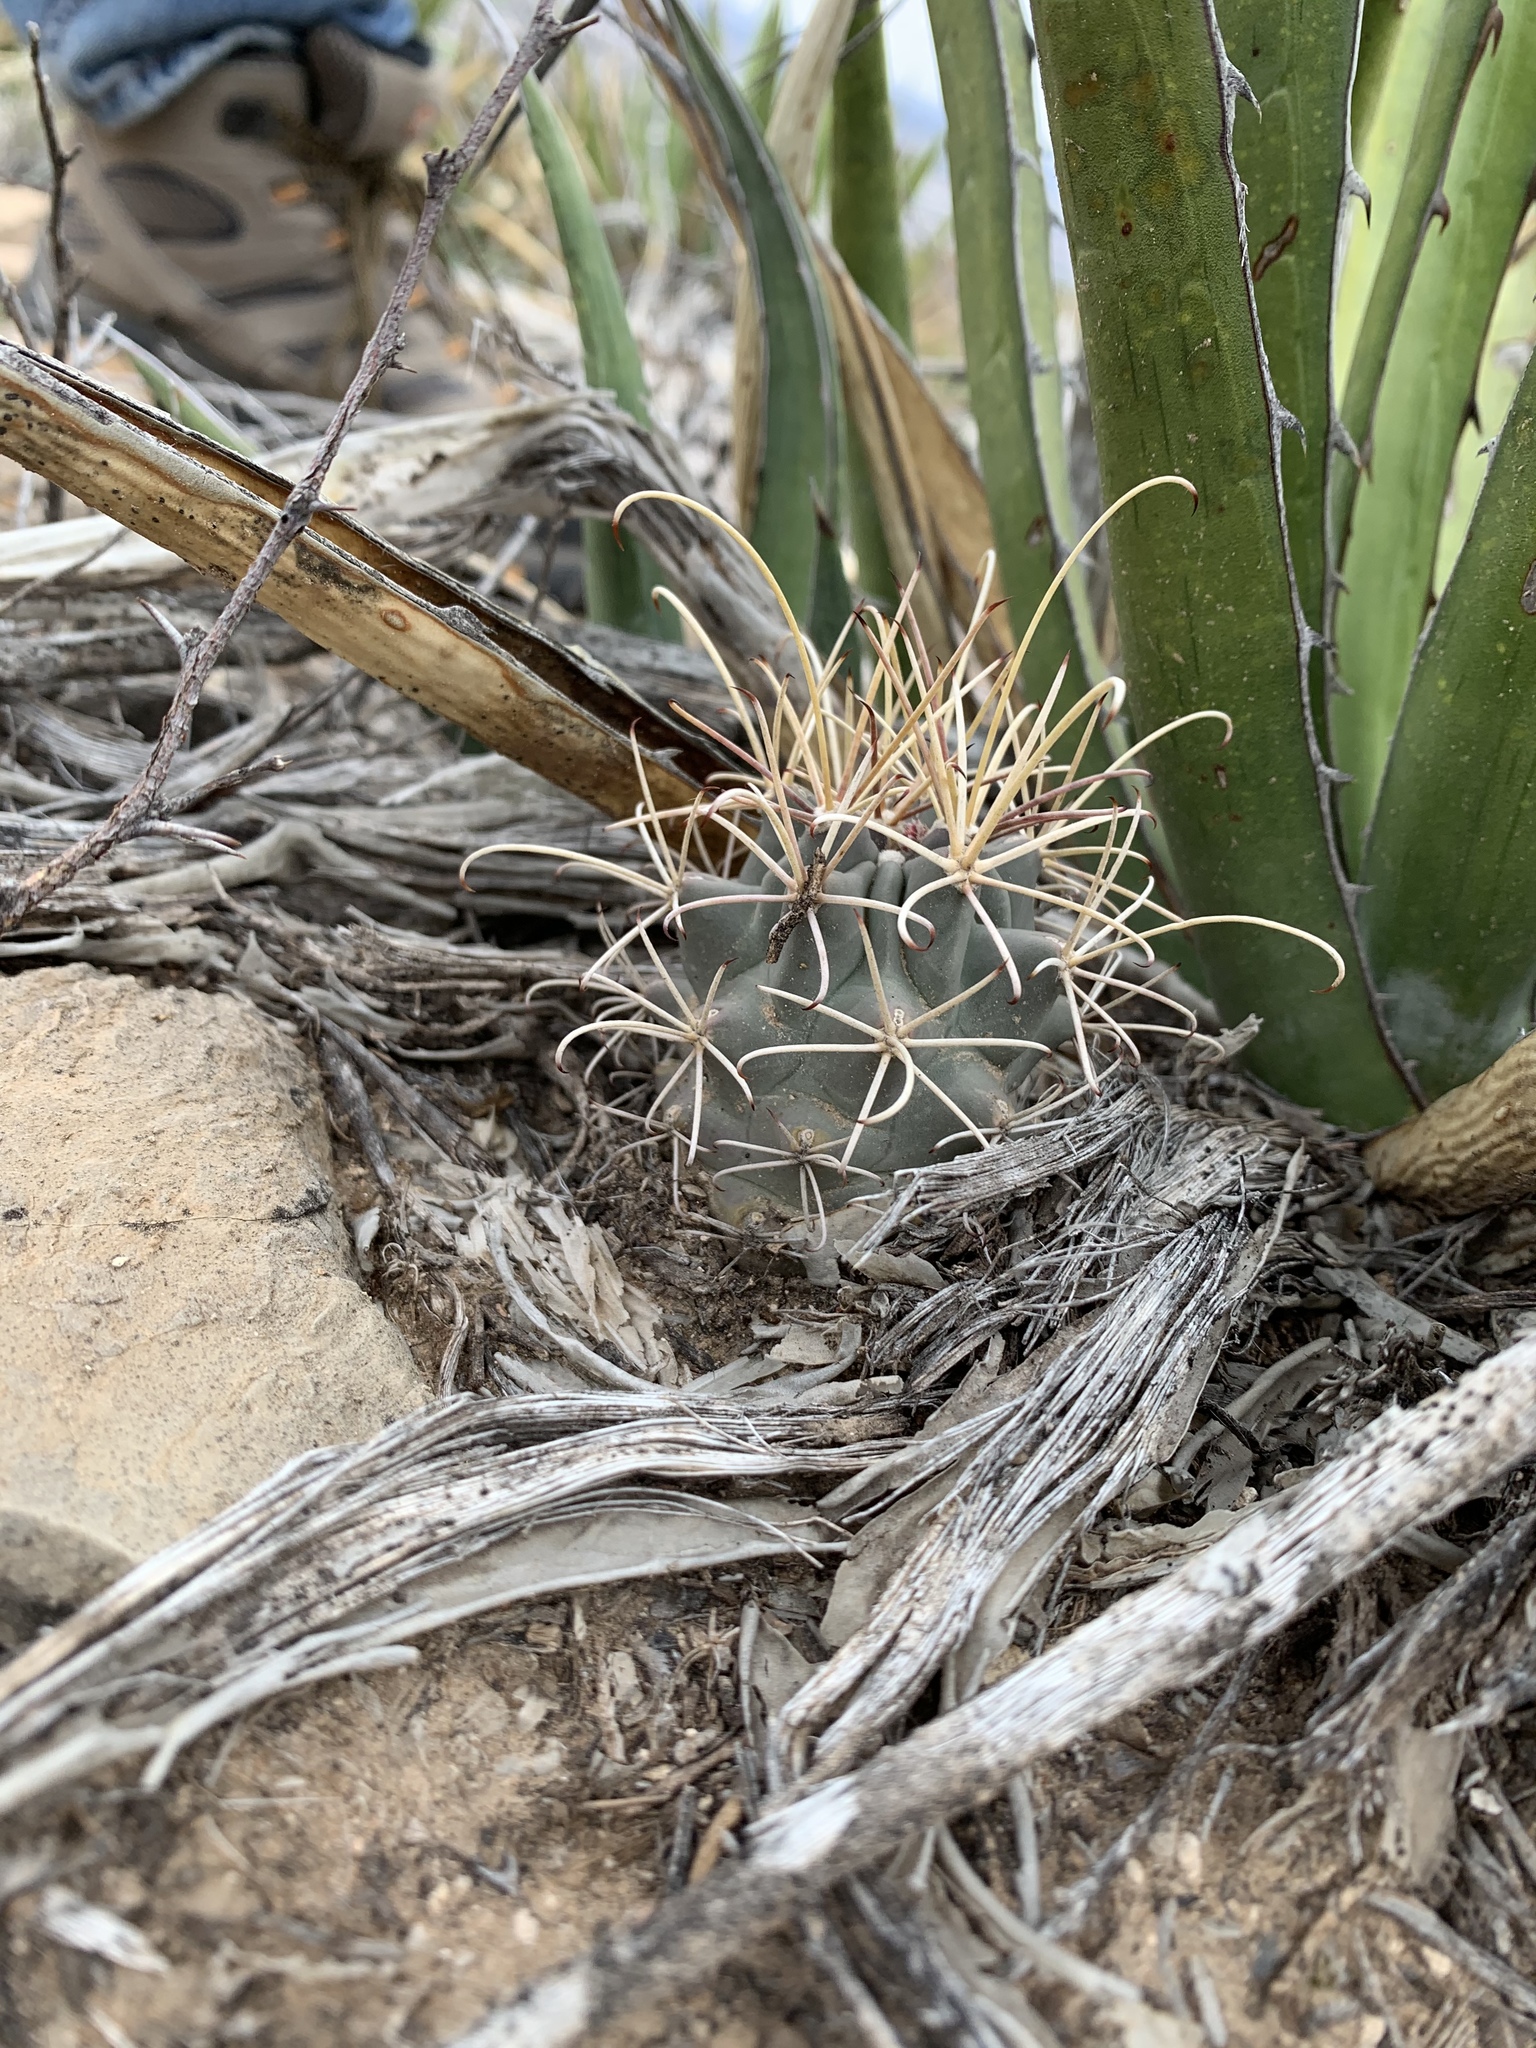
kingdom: Plantae
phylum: Tracheophyta
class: Magnoliopsida
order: Caryophyllales
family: Cactaceae
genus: Ferocactus
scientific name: Ferocactus uncinatus
